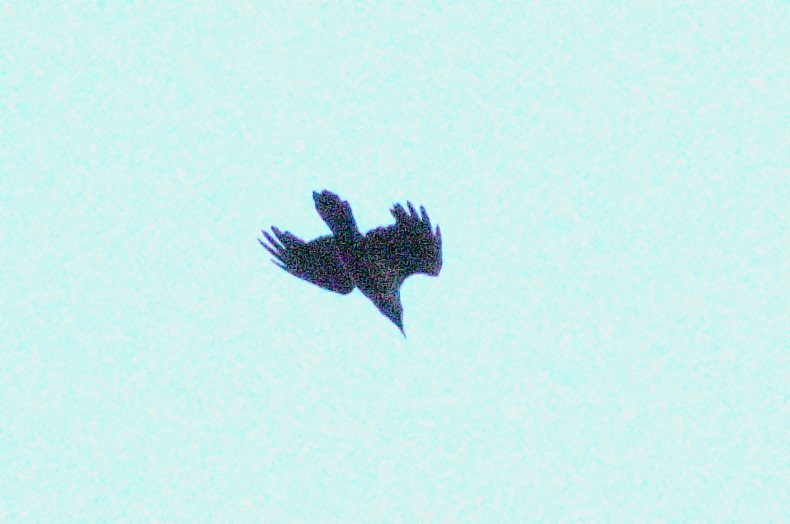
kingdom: Animalia
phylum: Chordata
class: Aves
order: Passeriformes
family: Corvidae
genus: Corvus
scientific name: Corvus corax
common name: Common raven
